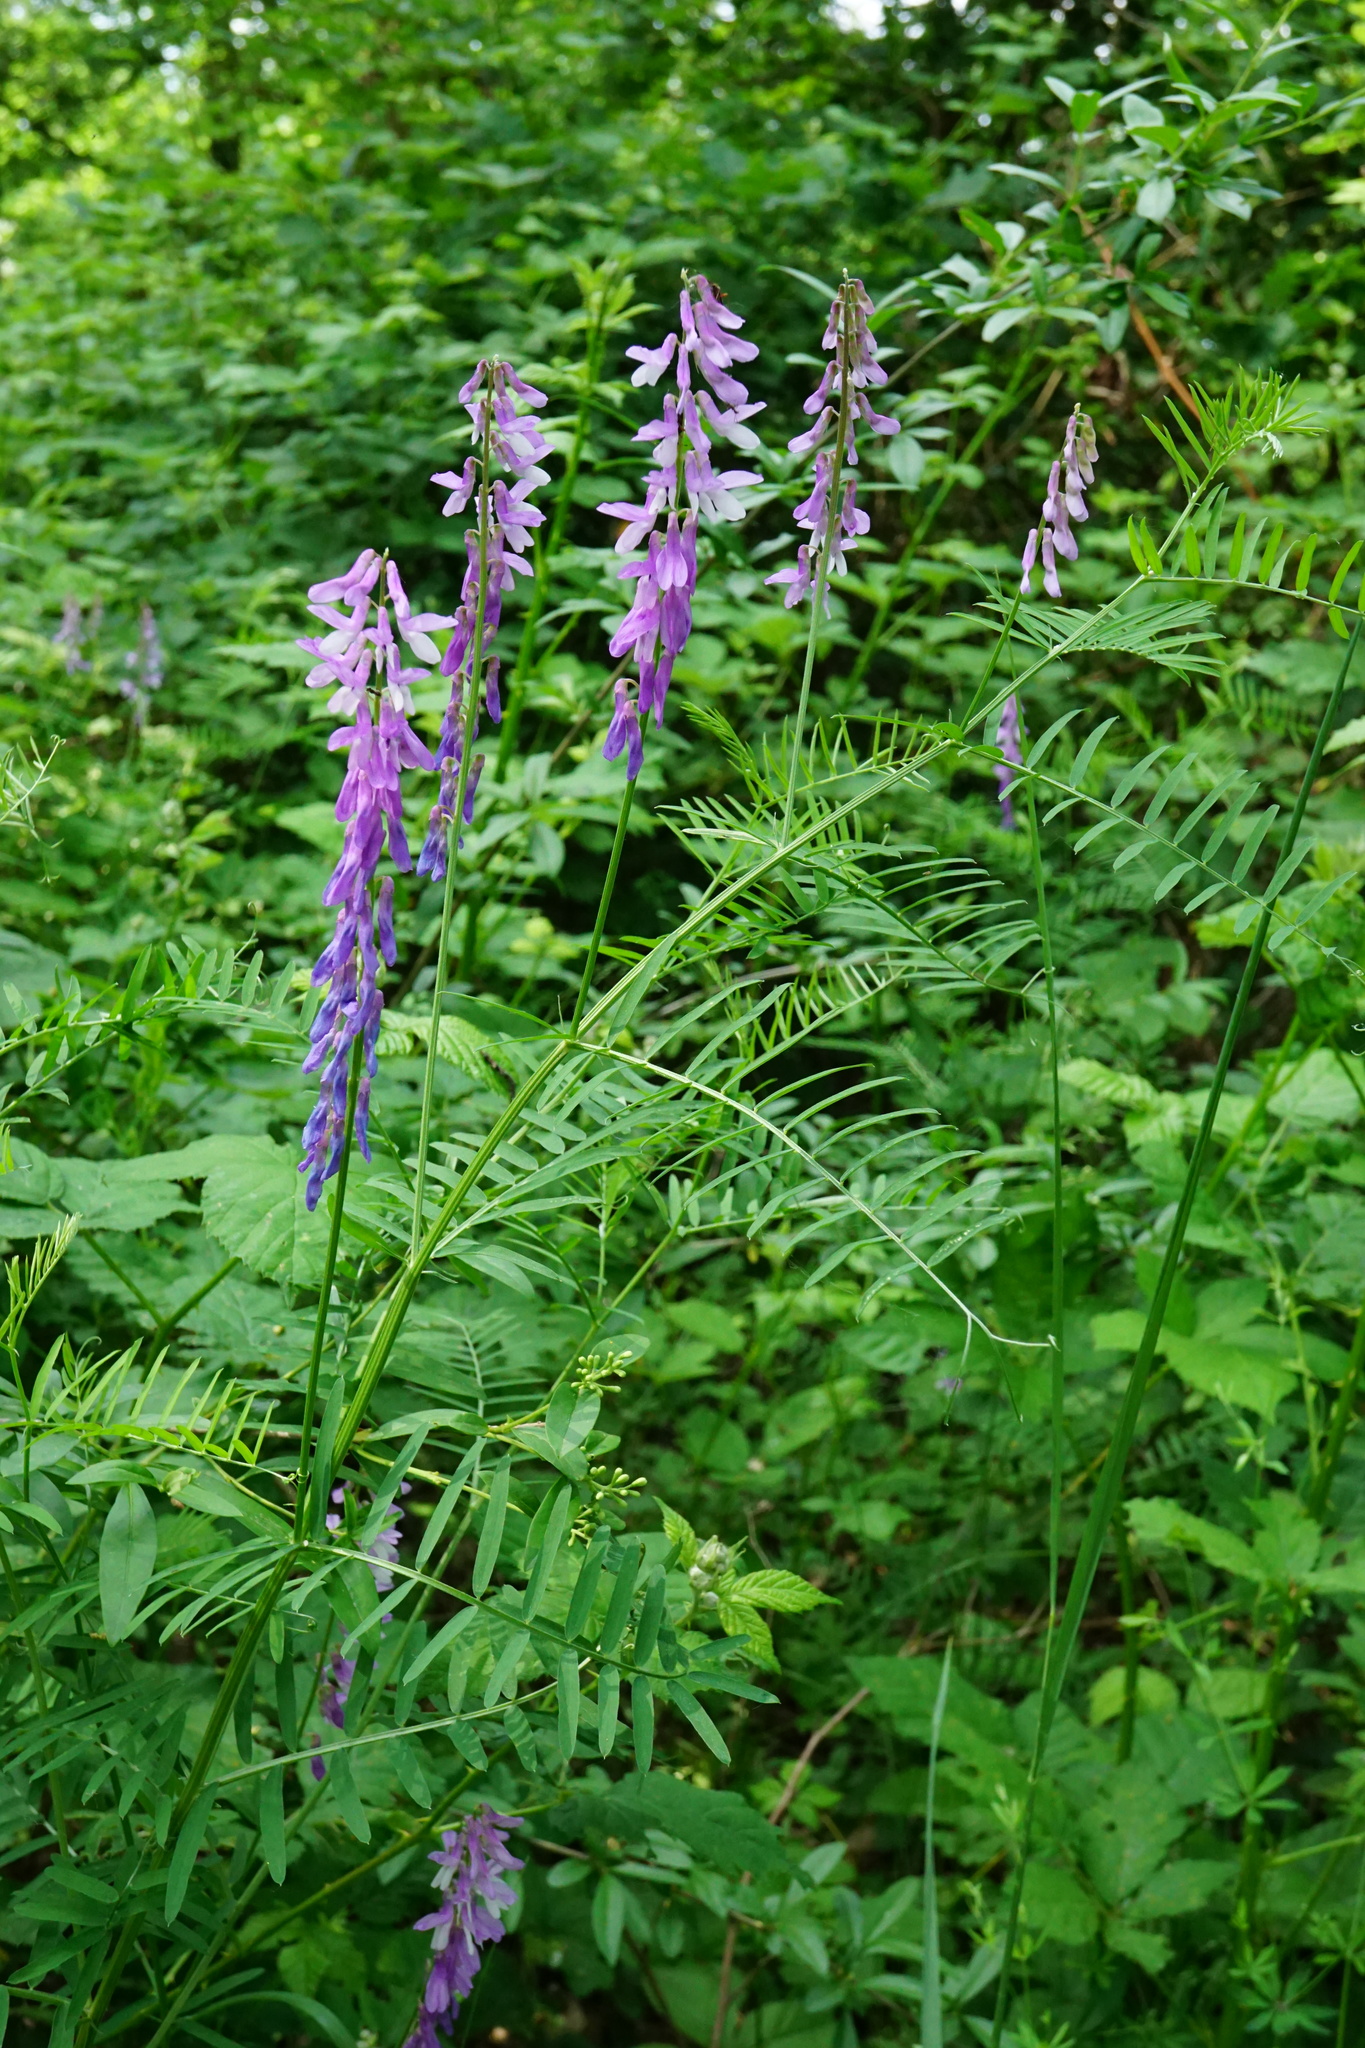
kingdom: Plantae
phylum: Tracheophyta
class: Magnoliopsida
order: Fabales
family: Fabaceae
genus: Vicia
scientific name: Vicia tenuifolia
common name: Fine-leaved vetch
